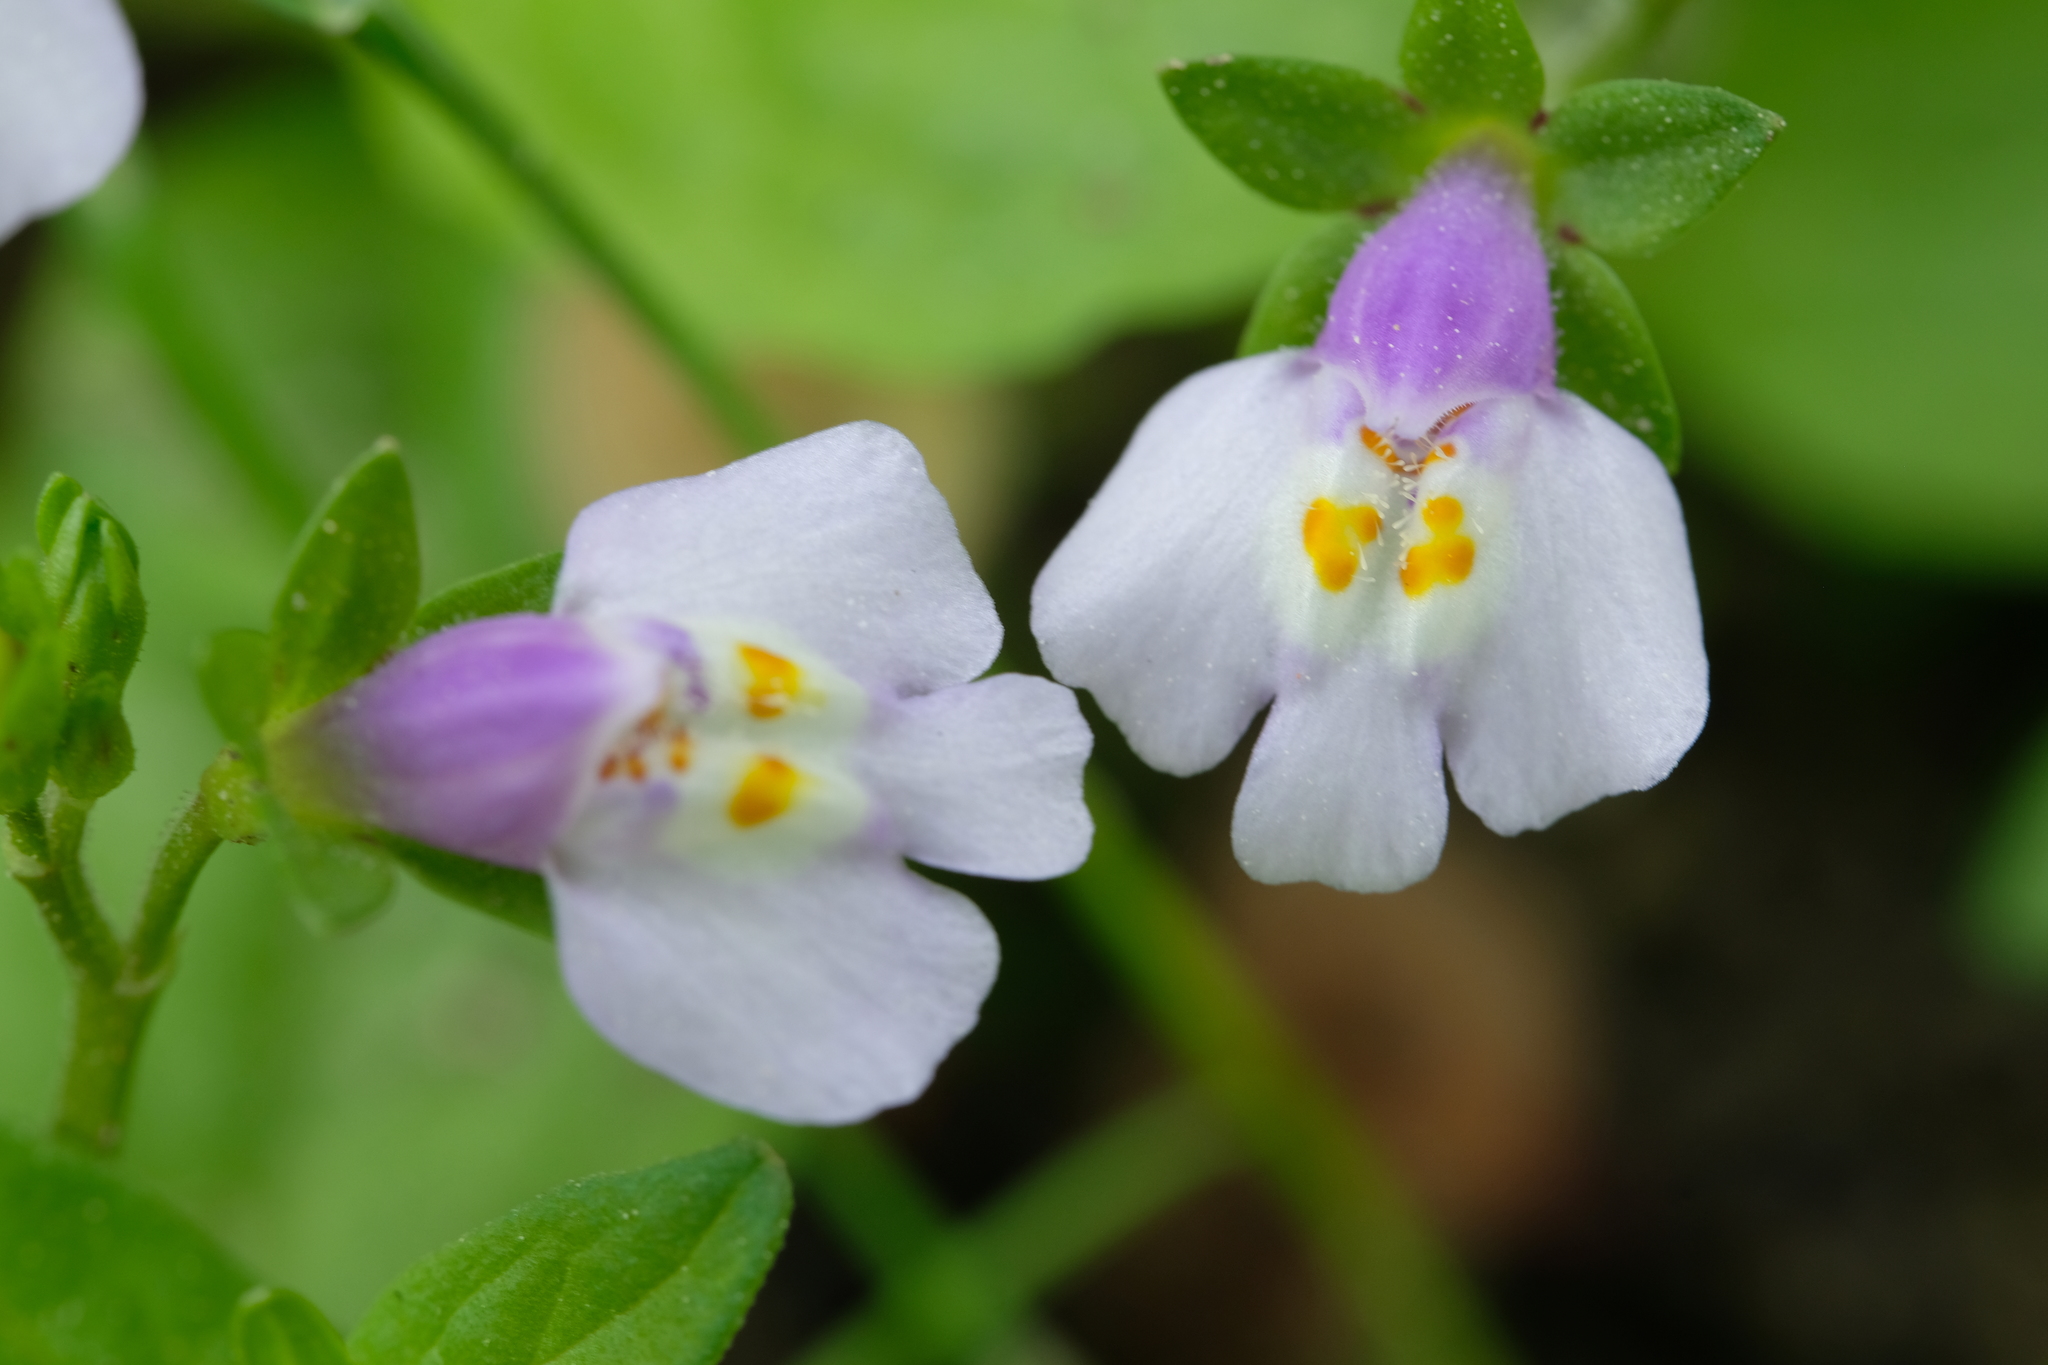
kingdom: Plantae
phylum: Tracheophyta
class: Magnoliopsida
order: Lamiales
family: Mazaceae
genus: Mazus
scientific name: Mazus pumilus
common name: Japanese mazus
